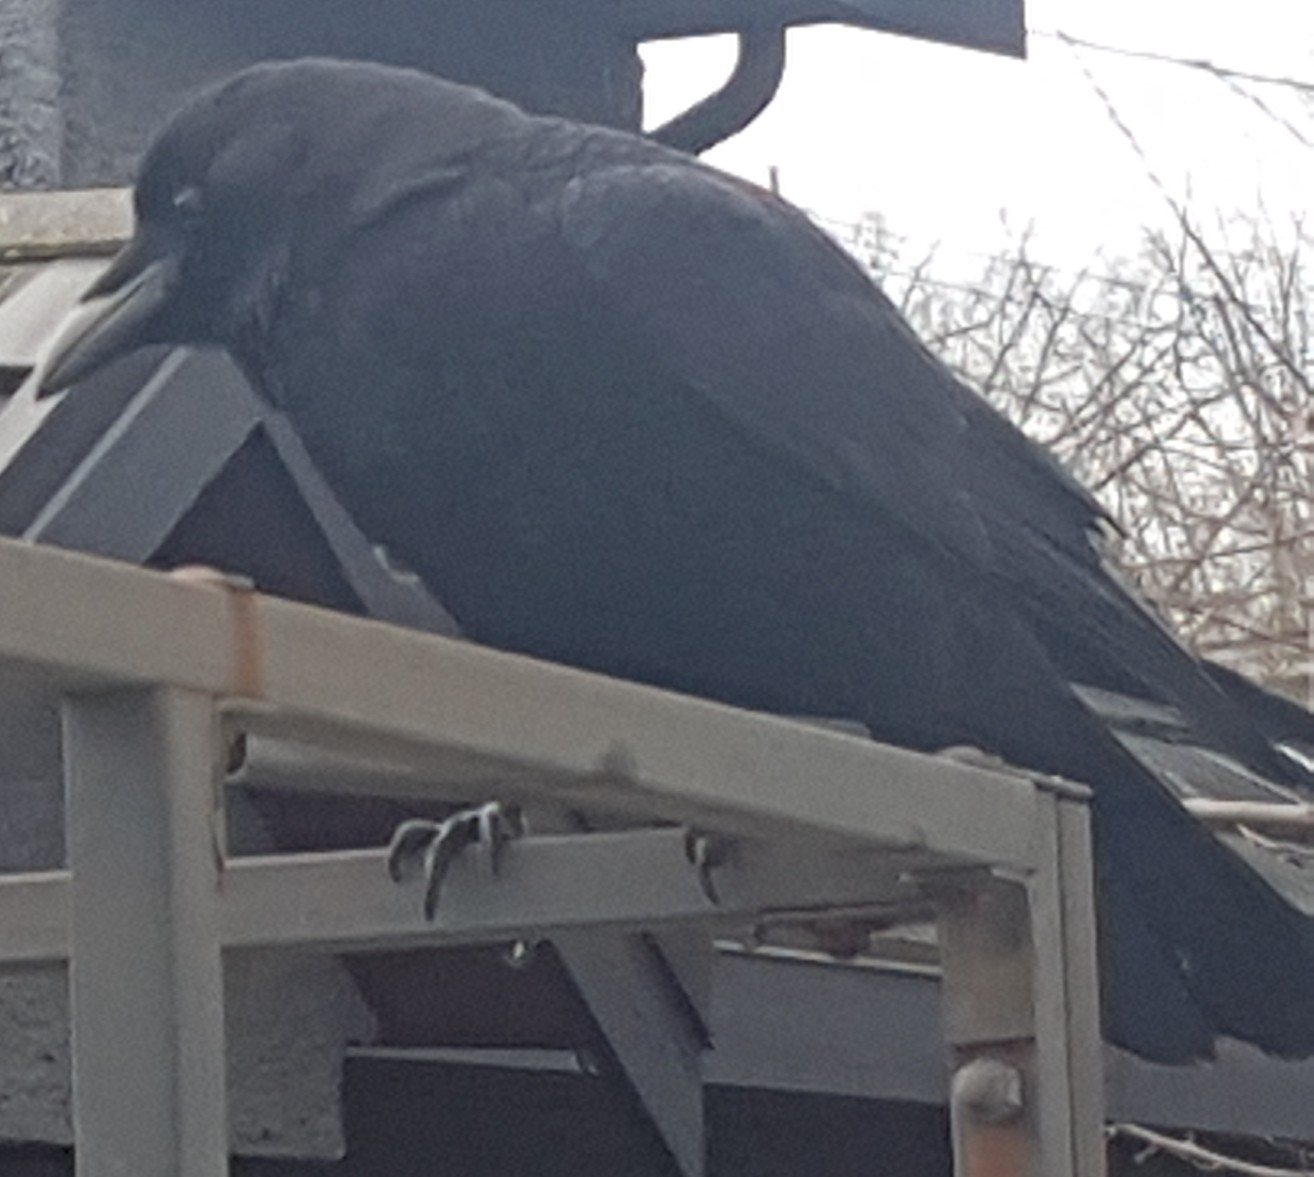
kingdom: Animalia
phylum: Chordata
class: Aves
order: Passeriformes
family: Corvidae
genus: Corvus
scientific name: Corvus brachyrhynchos
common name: American crow
